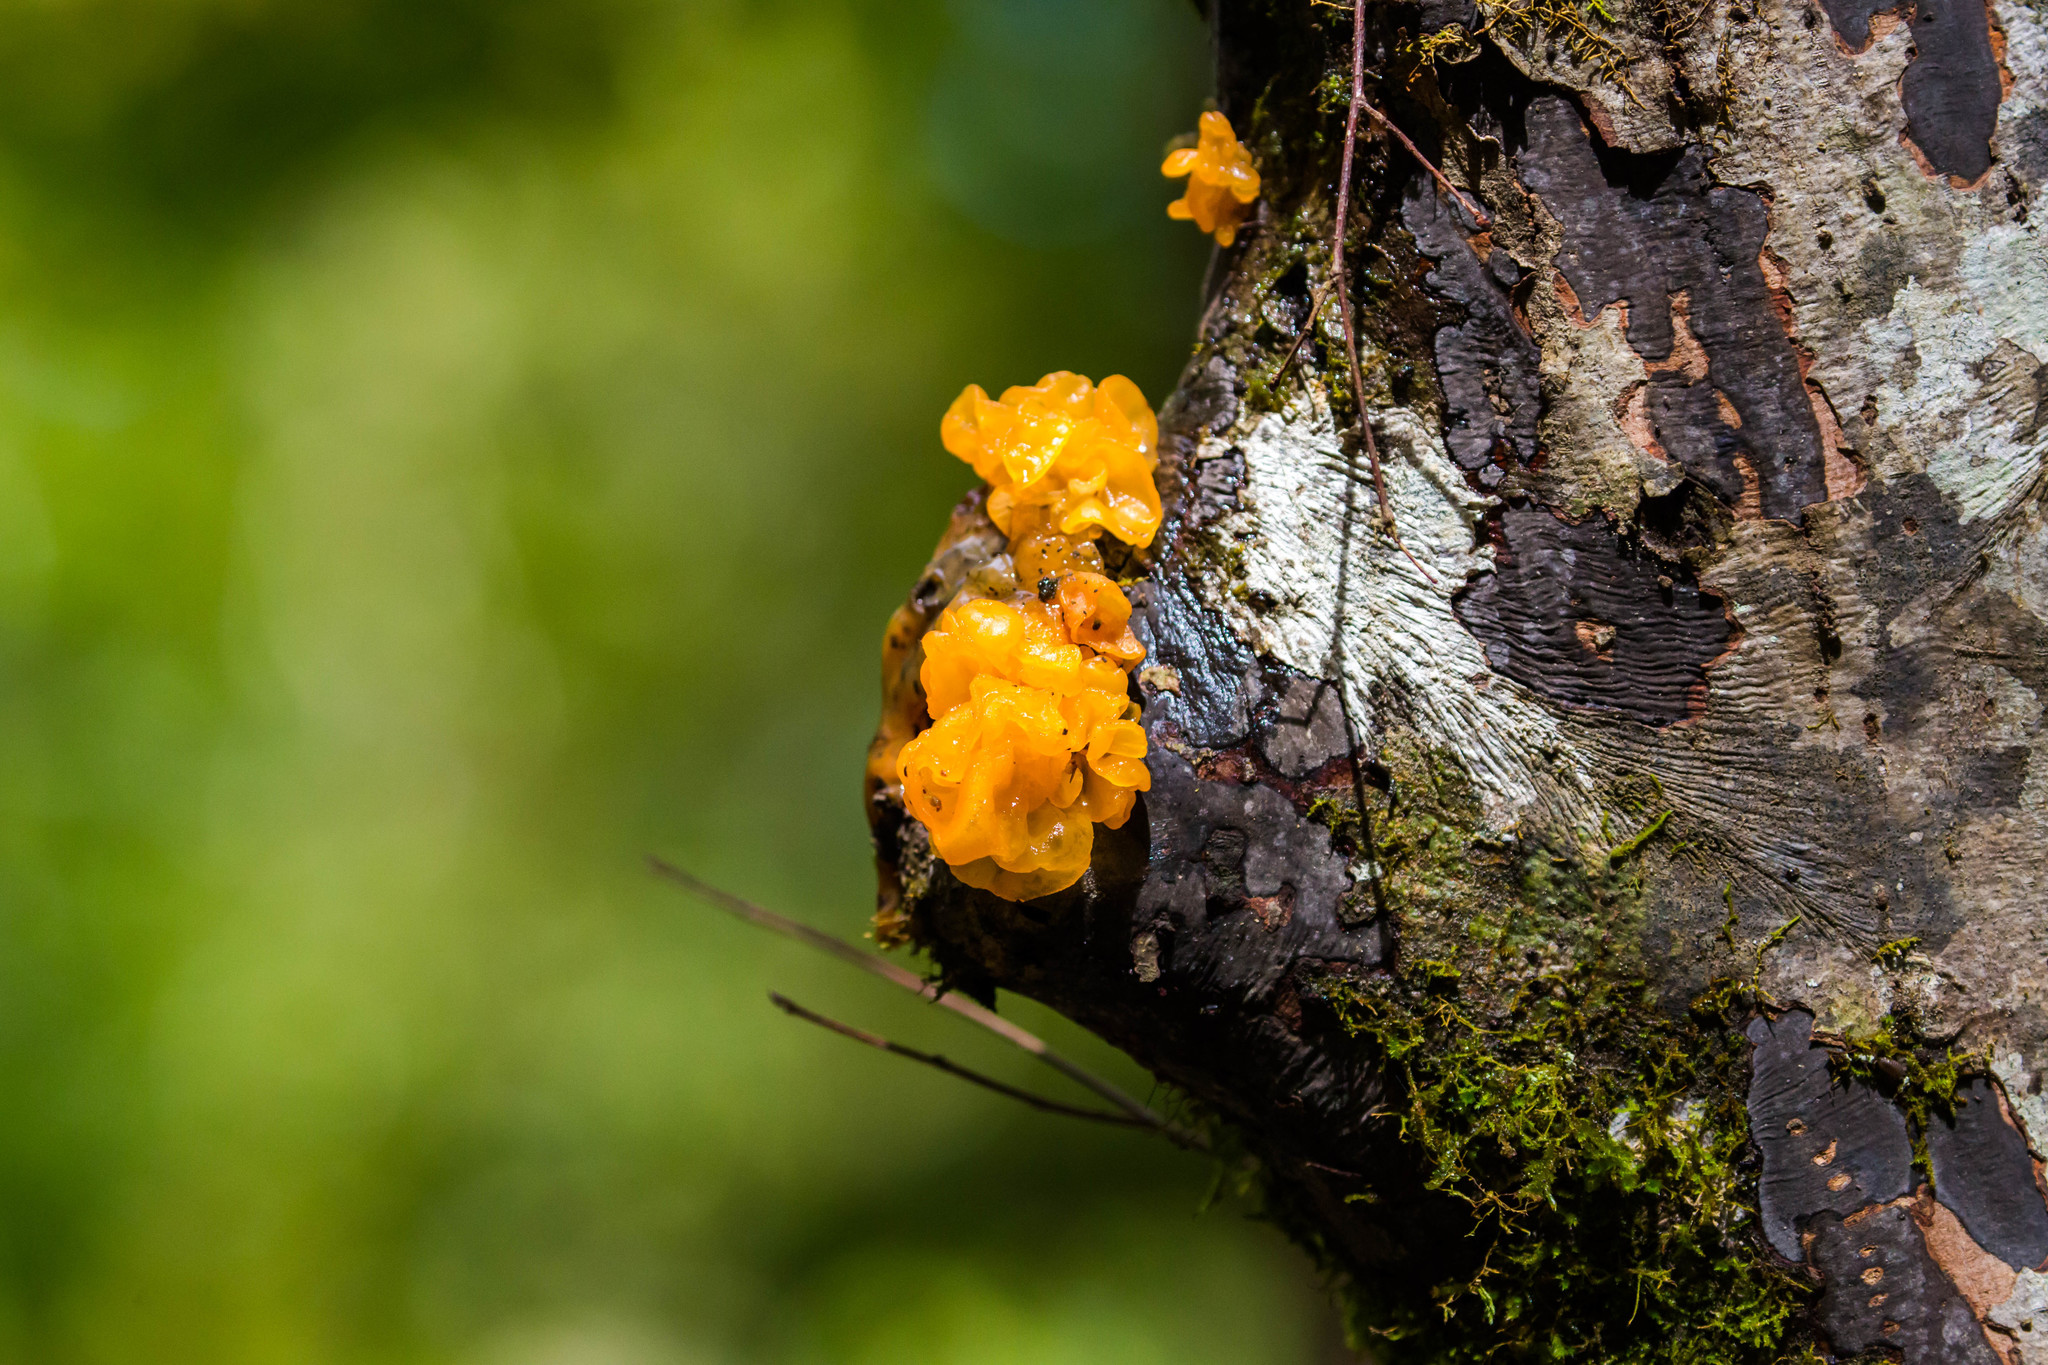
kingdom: Fungi
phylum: Basidiomycota
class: Tremellomycetes
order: Tremellales
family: Tremellaceae
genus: Tremella
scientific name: Tremella mesenterica
